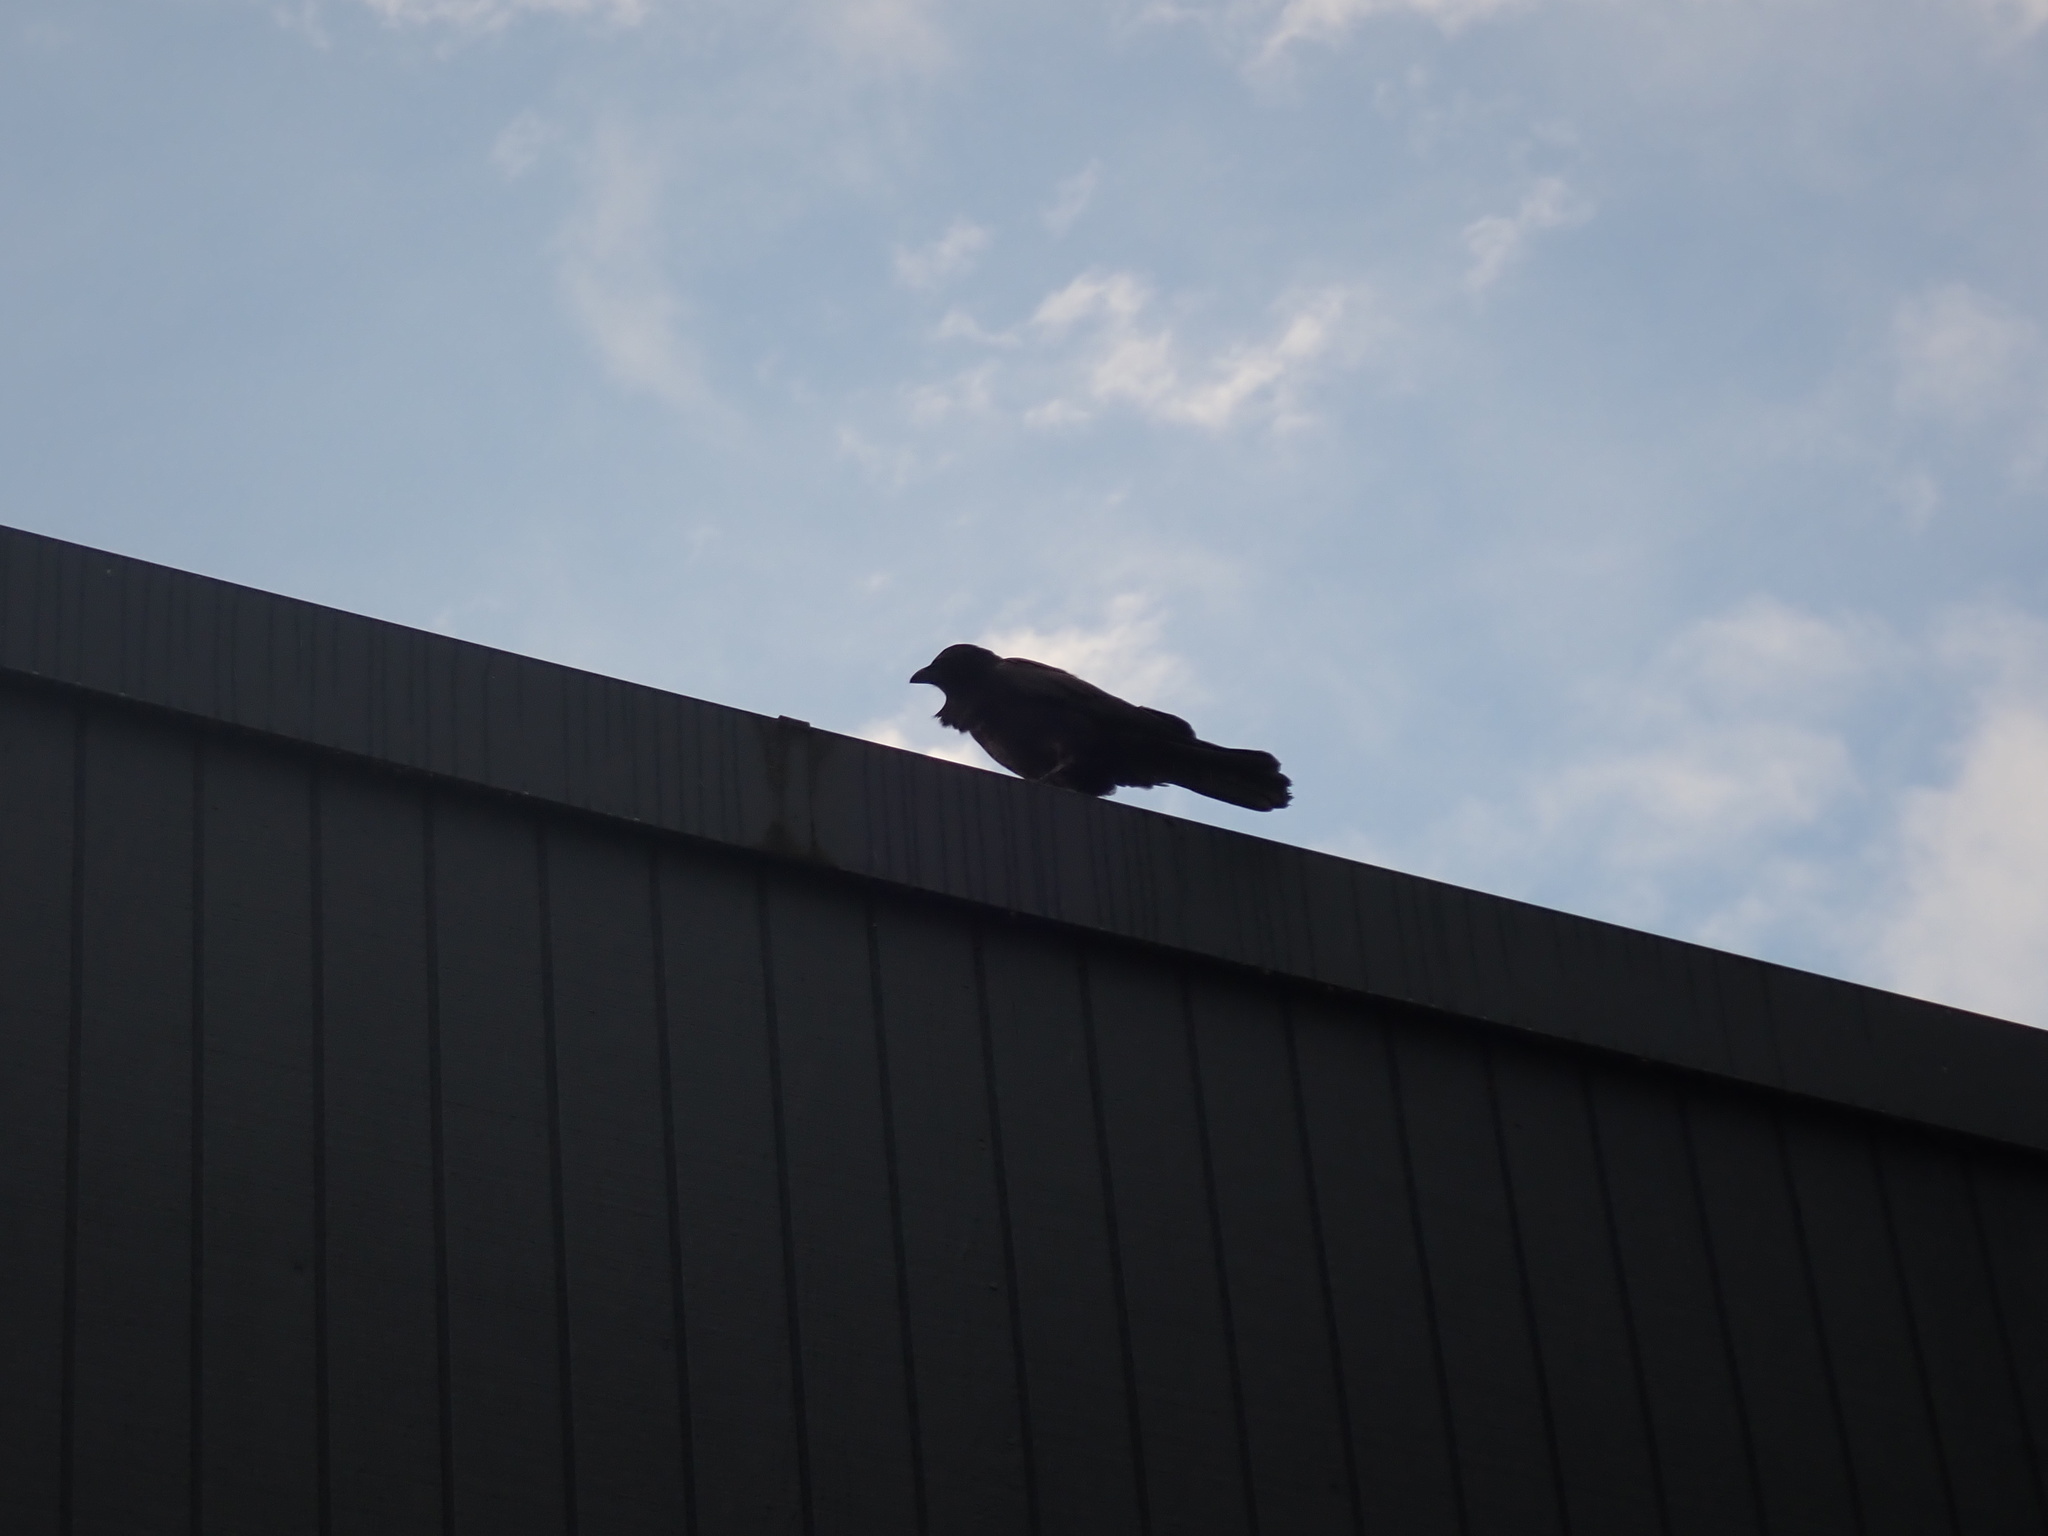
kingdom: Animalia
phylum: Chordata
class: Aves
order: Passeriformes
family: Corvidae
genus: Corvus
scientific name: Corvus brachyrhynchos
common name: American crow
